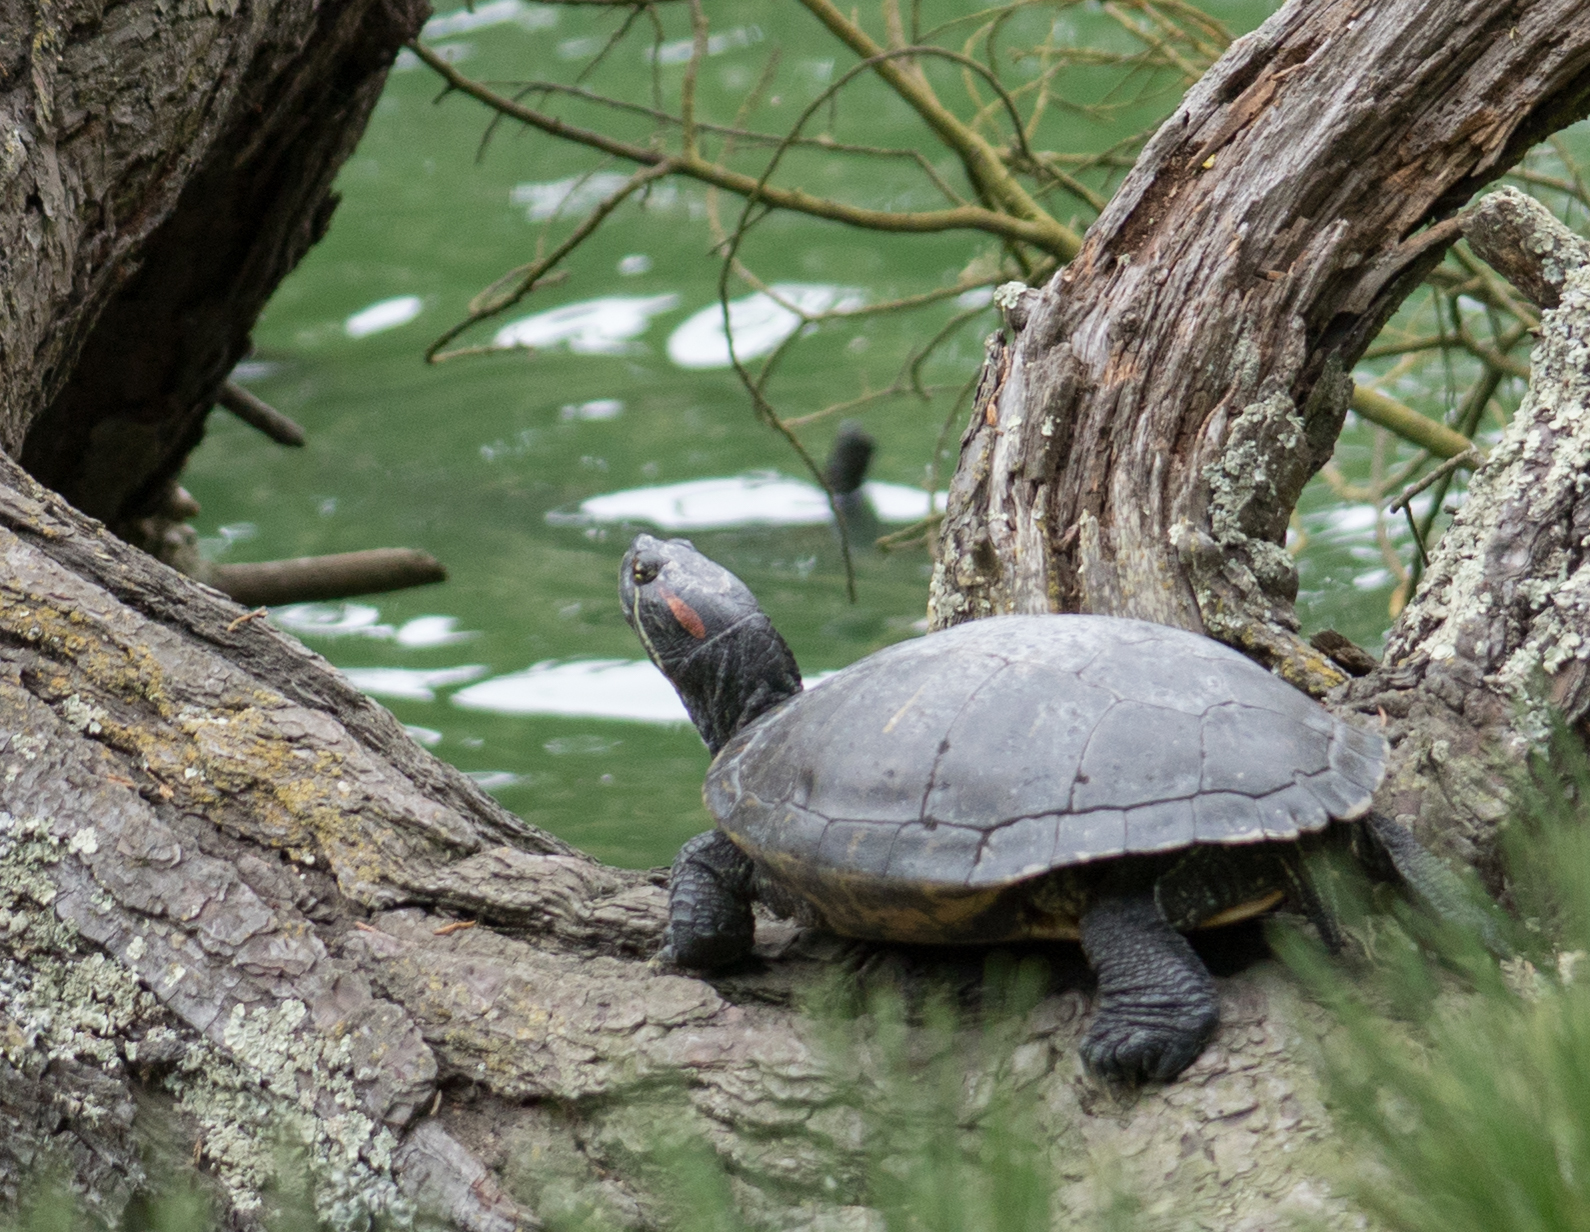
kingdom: Animalia
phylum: Chordata
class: Testudines
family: Emydidae
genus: Trachemys
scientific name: Trachemys scripta
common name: Slider
